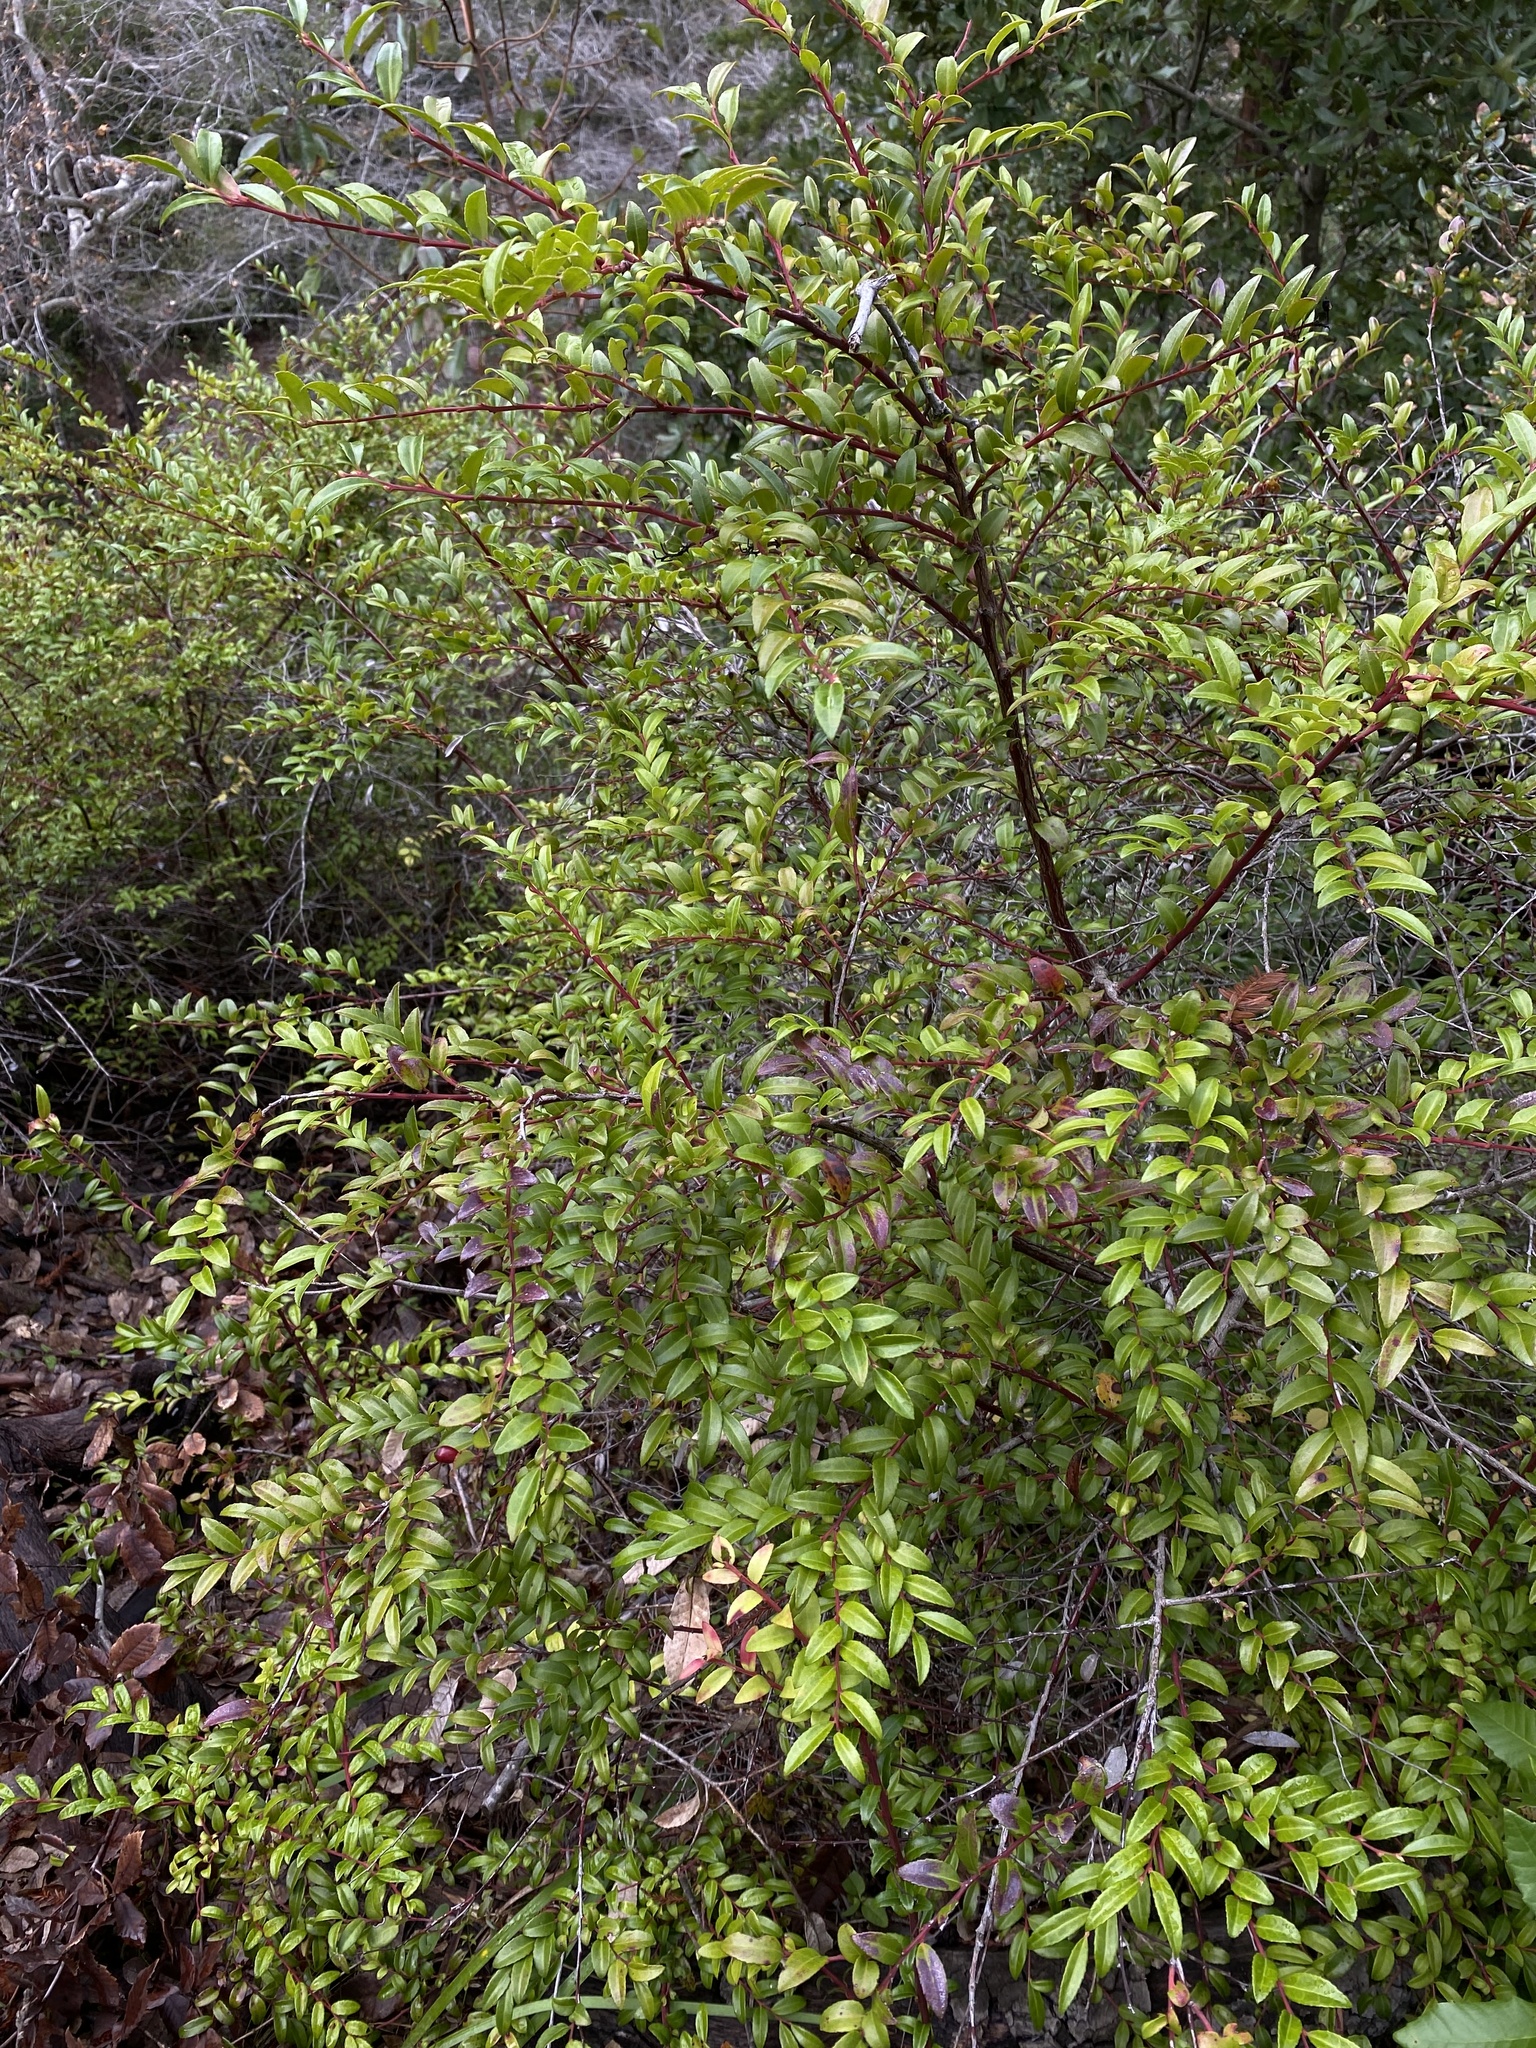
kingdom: Plantae
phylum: Tracheophyta
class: Magnoliopsida
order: Ericales
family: Ericaceae
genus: Vaccinium
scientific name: Vaccinium ovatum
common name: California-huckleberry
